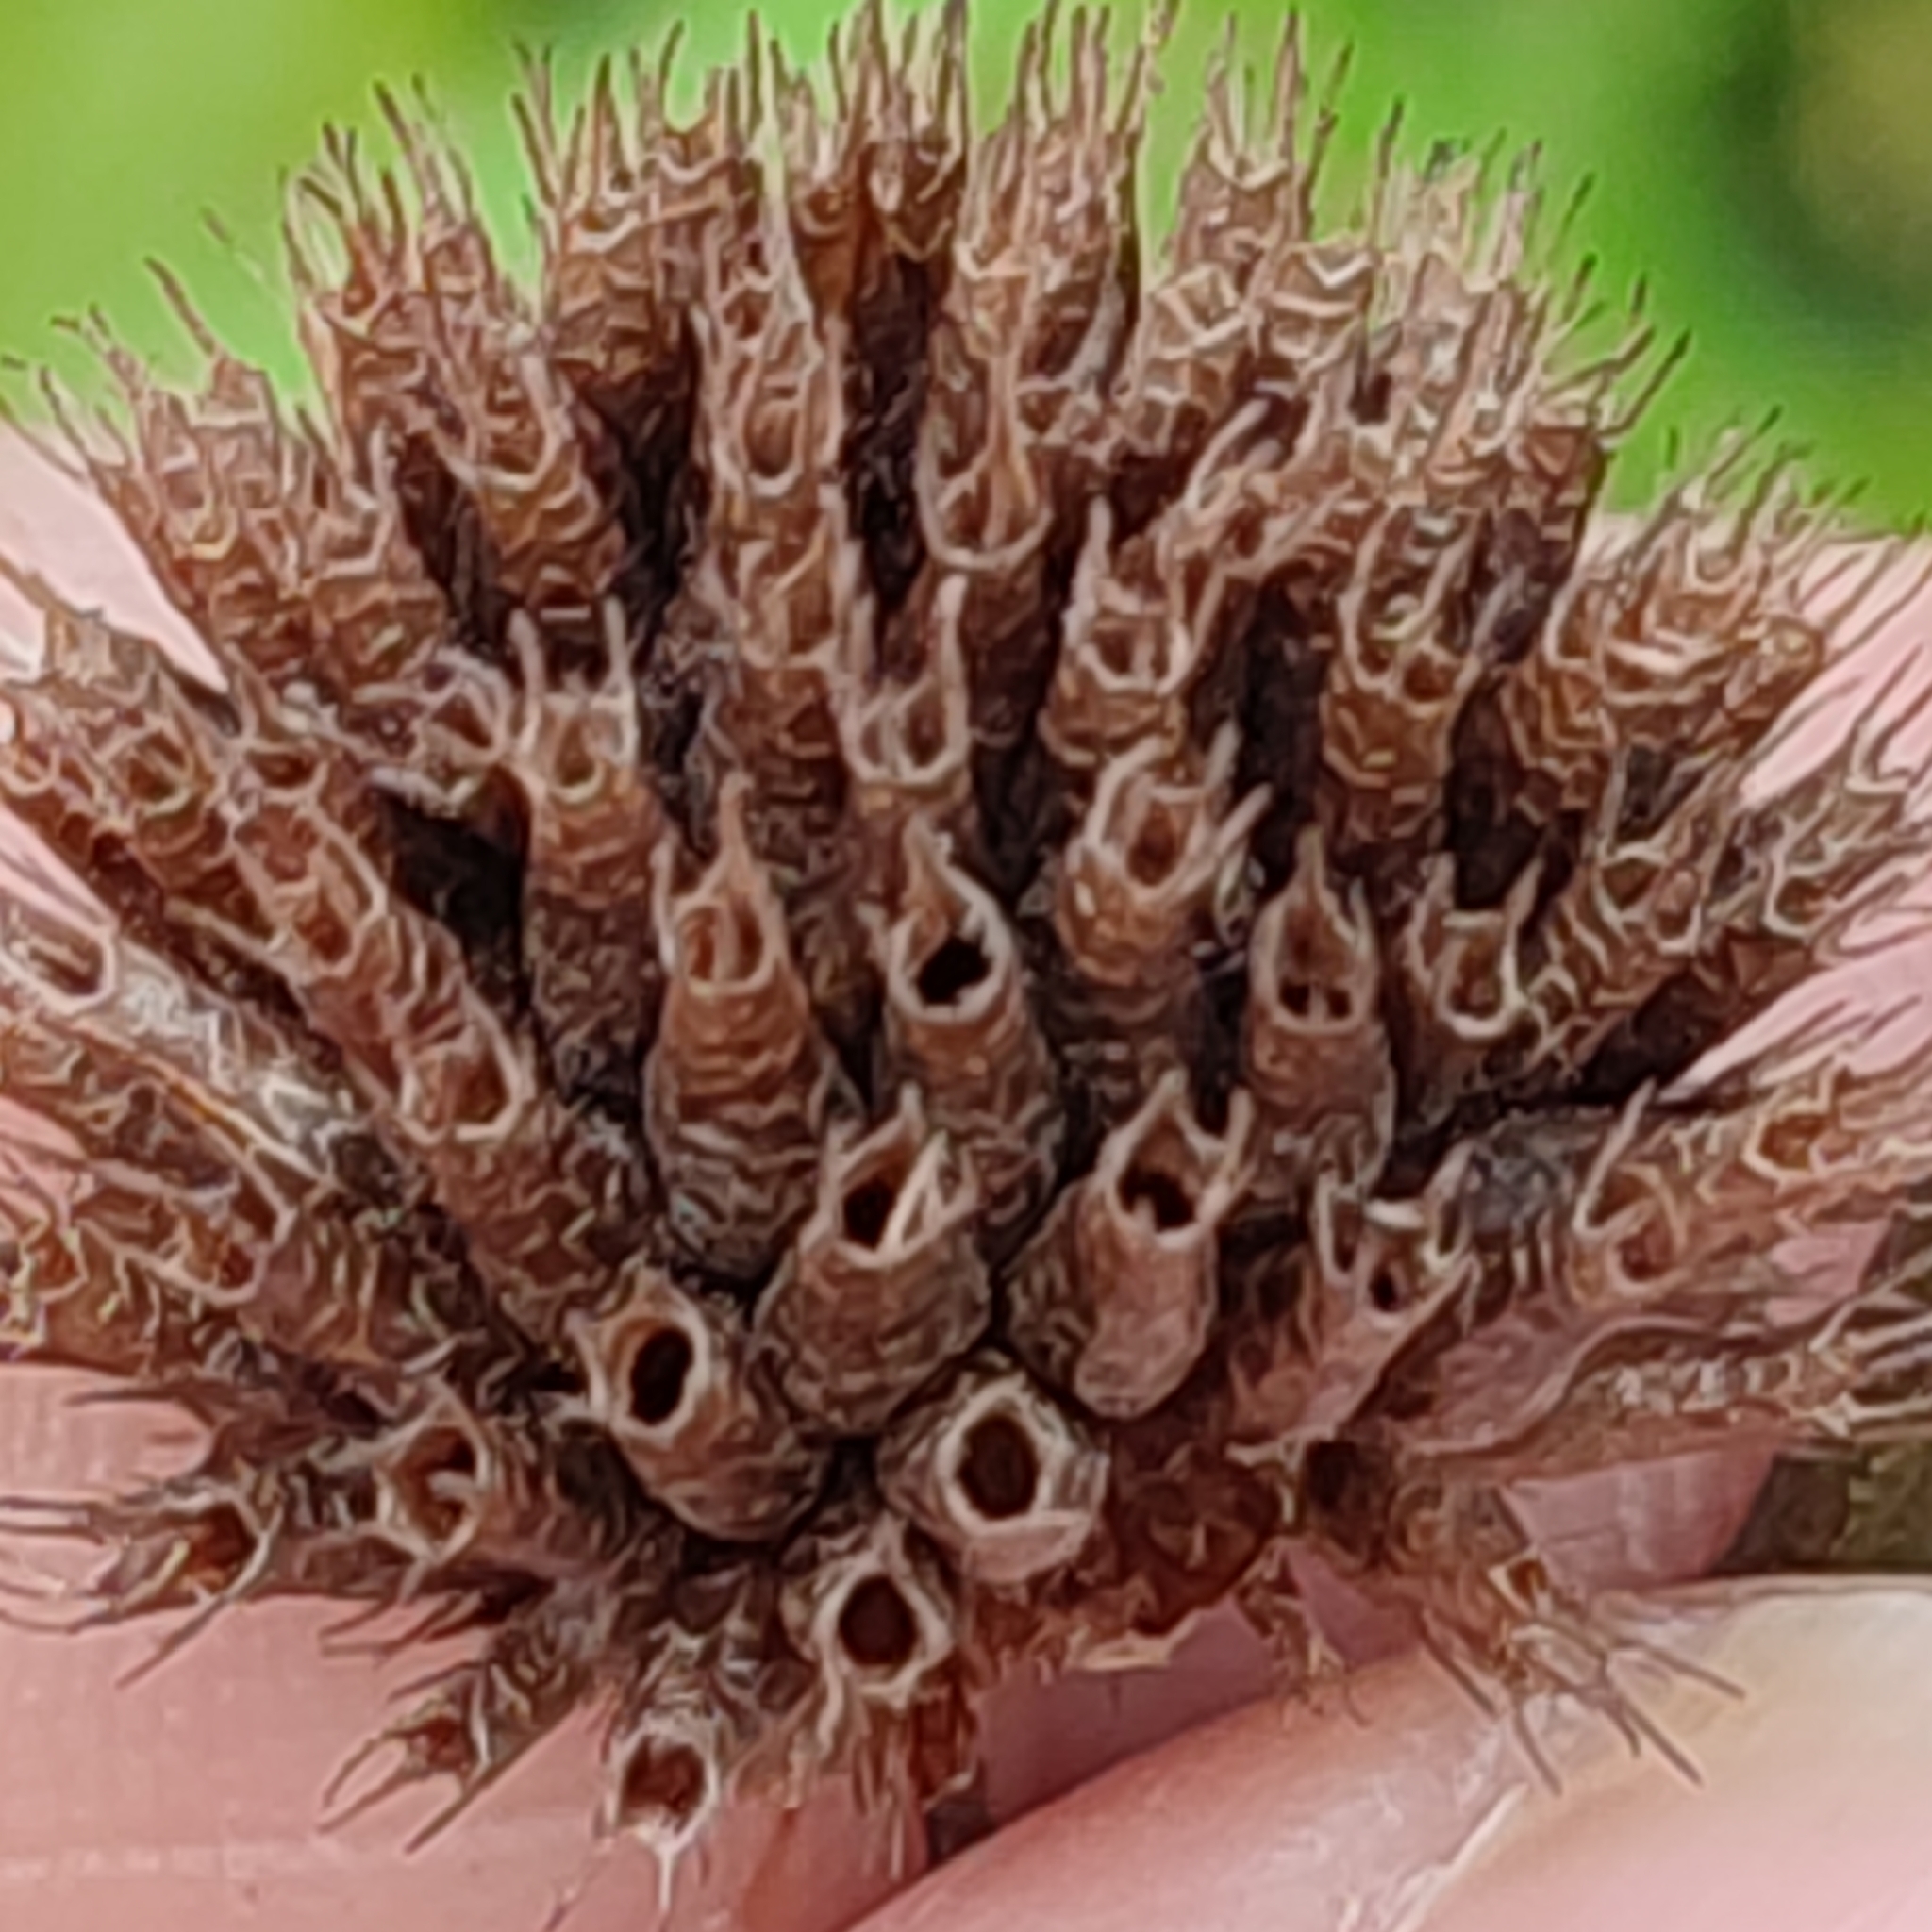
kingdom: Plantae
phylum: Tracheophyta
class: Magnoliopsida
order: Lamiales
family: Lamiaceae
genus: Hyptis
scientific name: Hyptis capitata
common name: False ironwort
